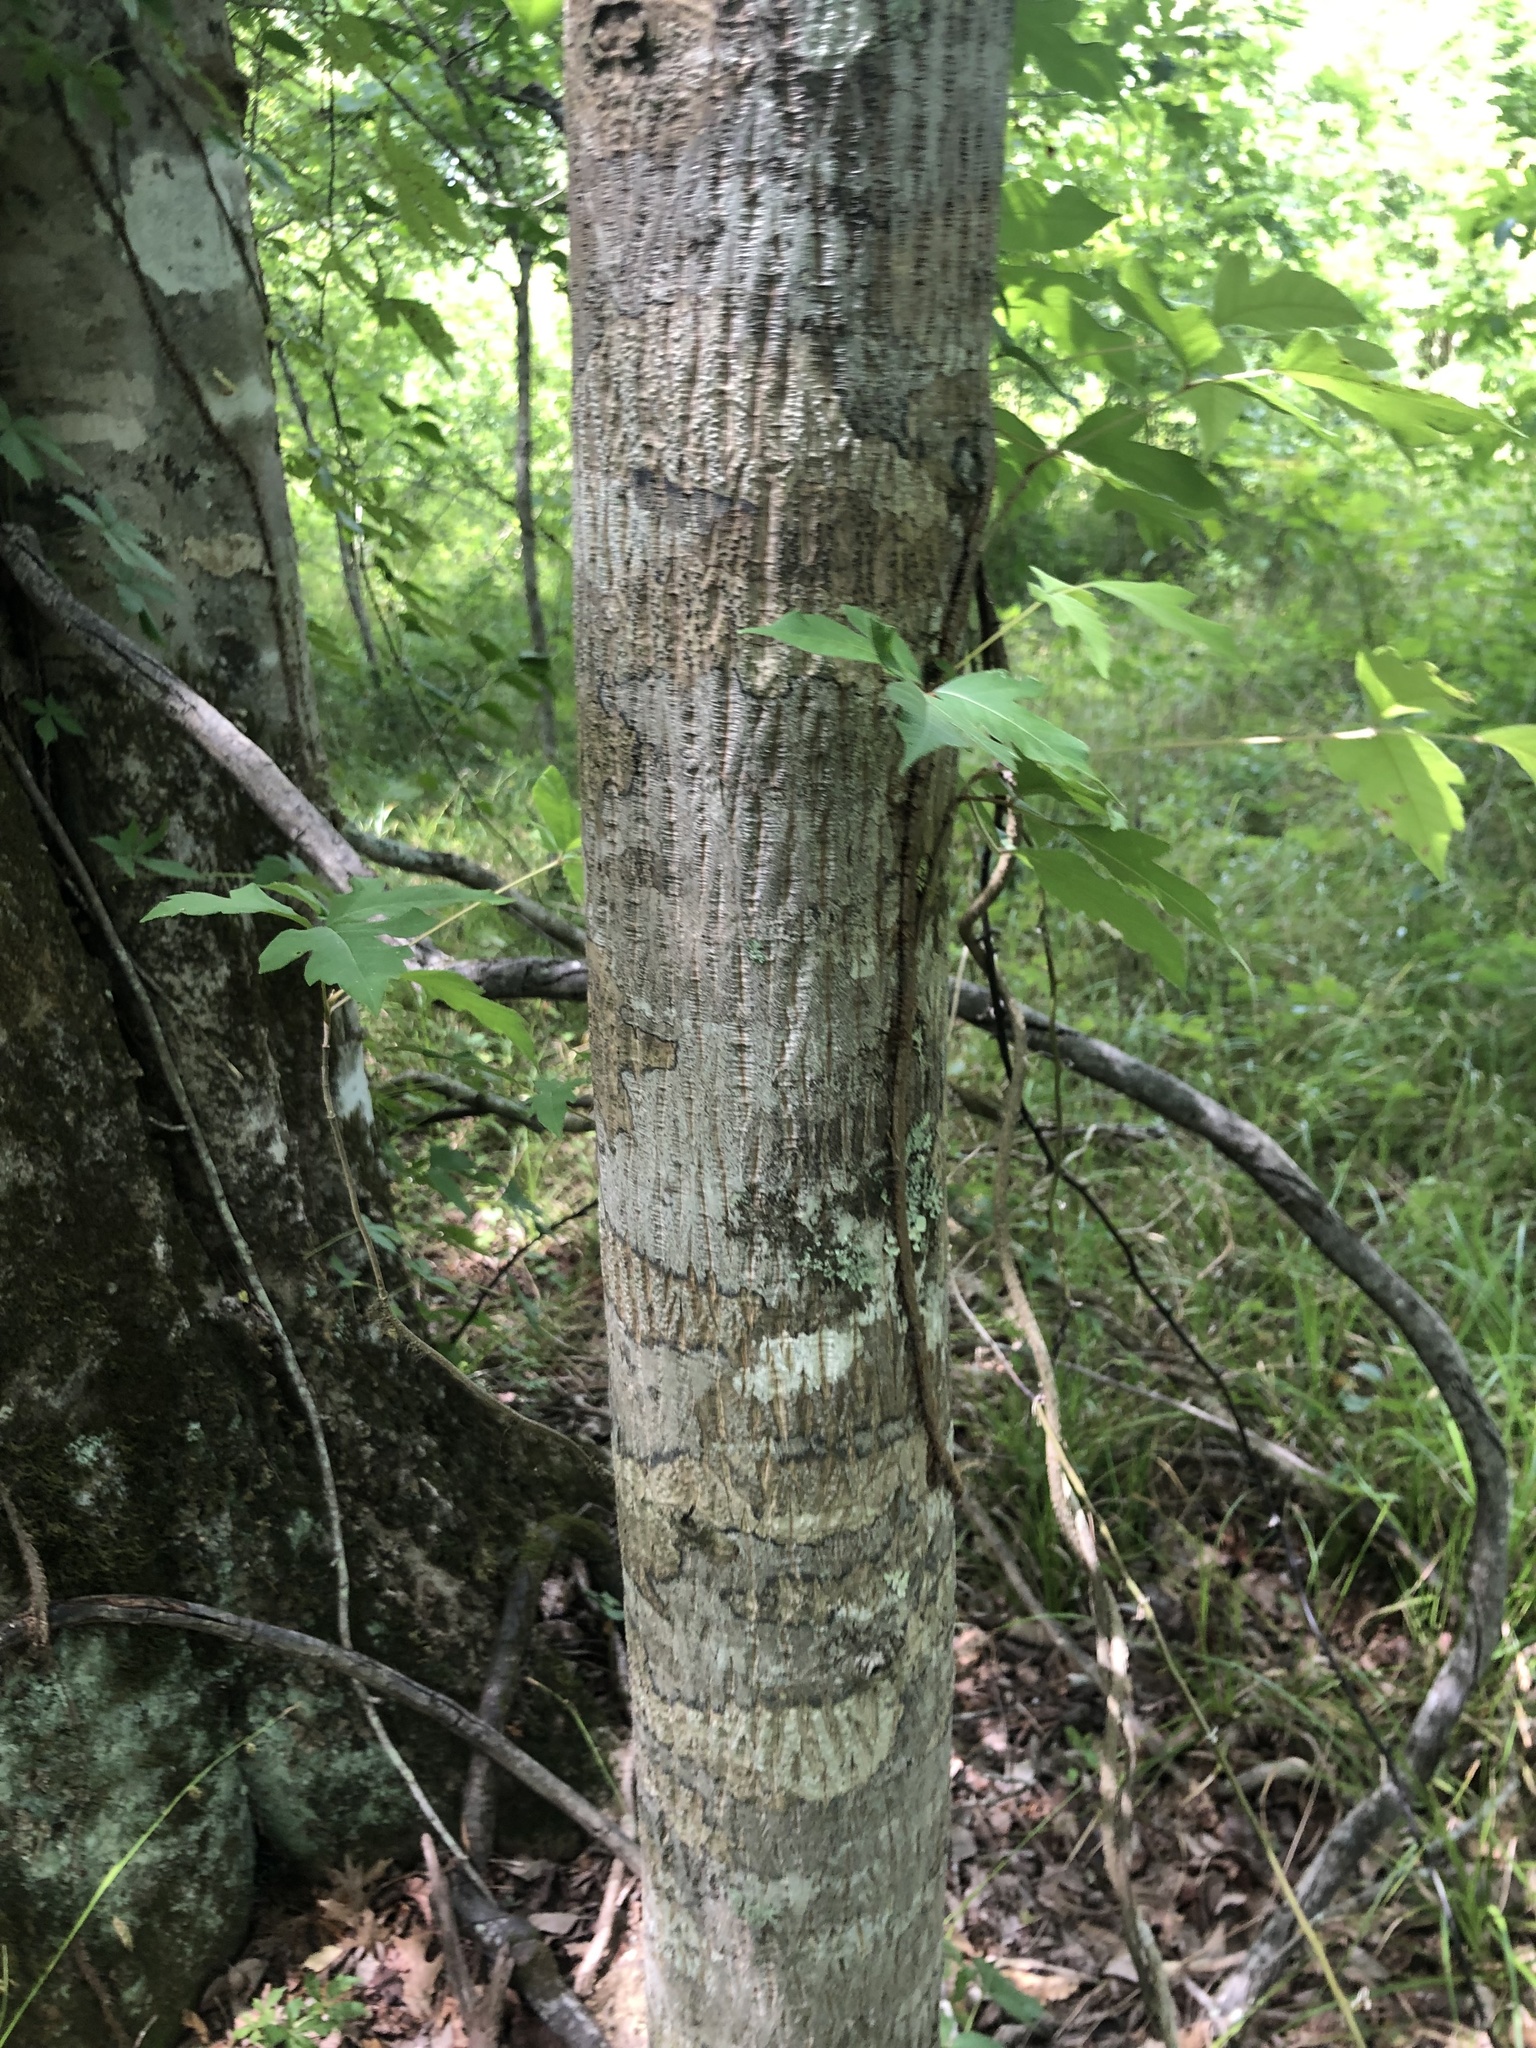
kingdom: Plantae
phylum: Tracheophyta
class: Magnoliopsida
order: Fagales
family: Juglandaceae
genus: Carya
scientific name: Carya myristiciformis
